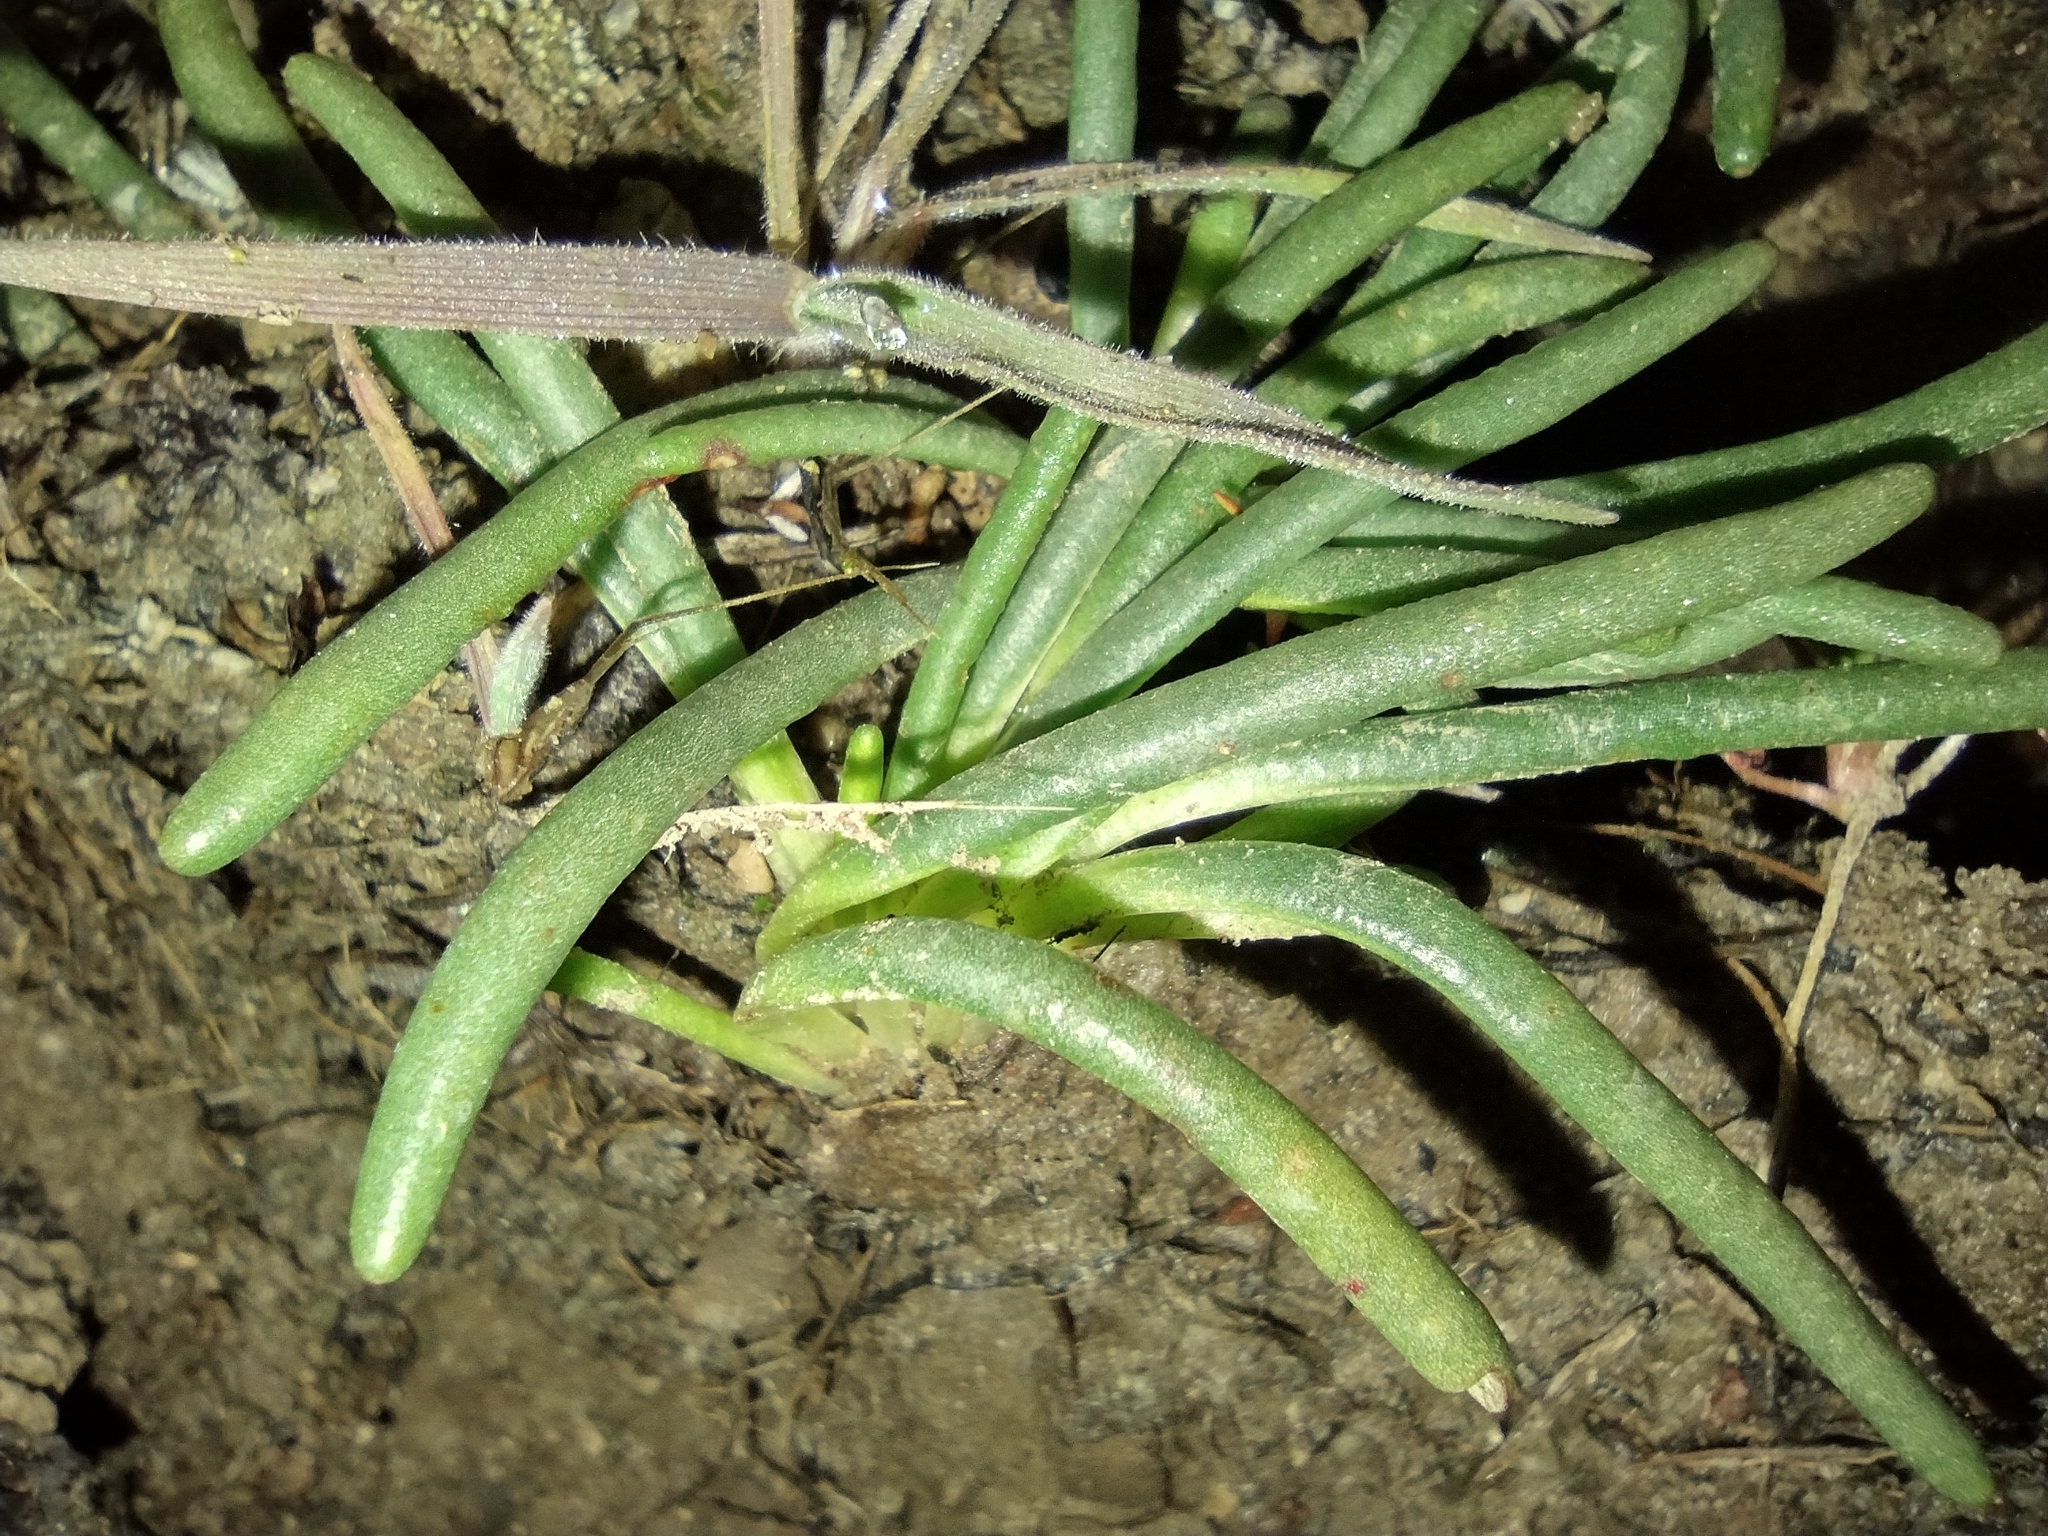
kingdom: Plantae
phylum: Tracheophyta
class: Magnoliopsida
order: Caryophyllales
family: Montiaceae
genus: Lewisia
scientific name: Lewisia rediviva
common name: Bitter-root
